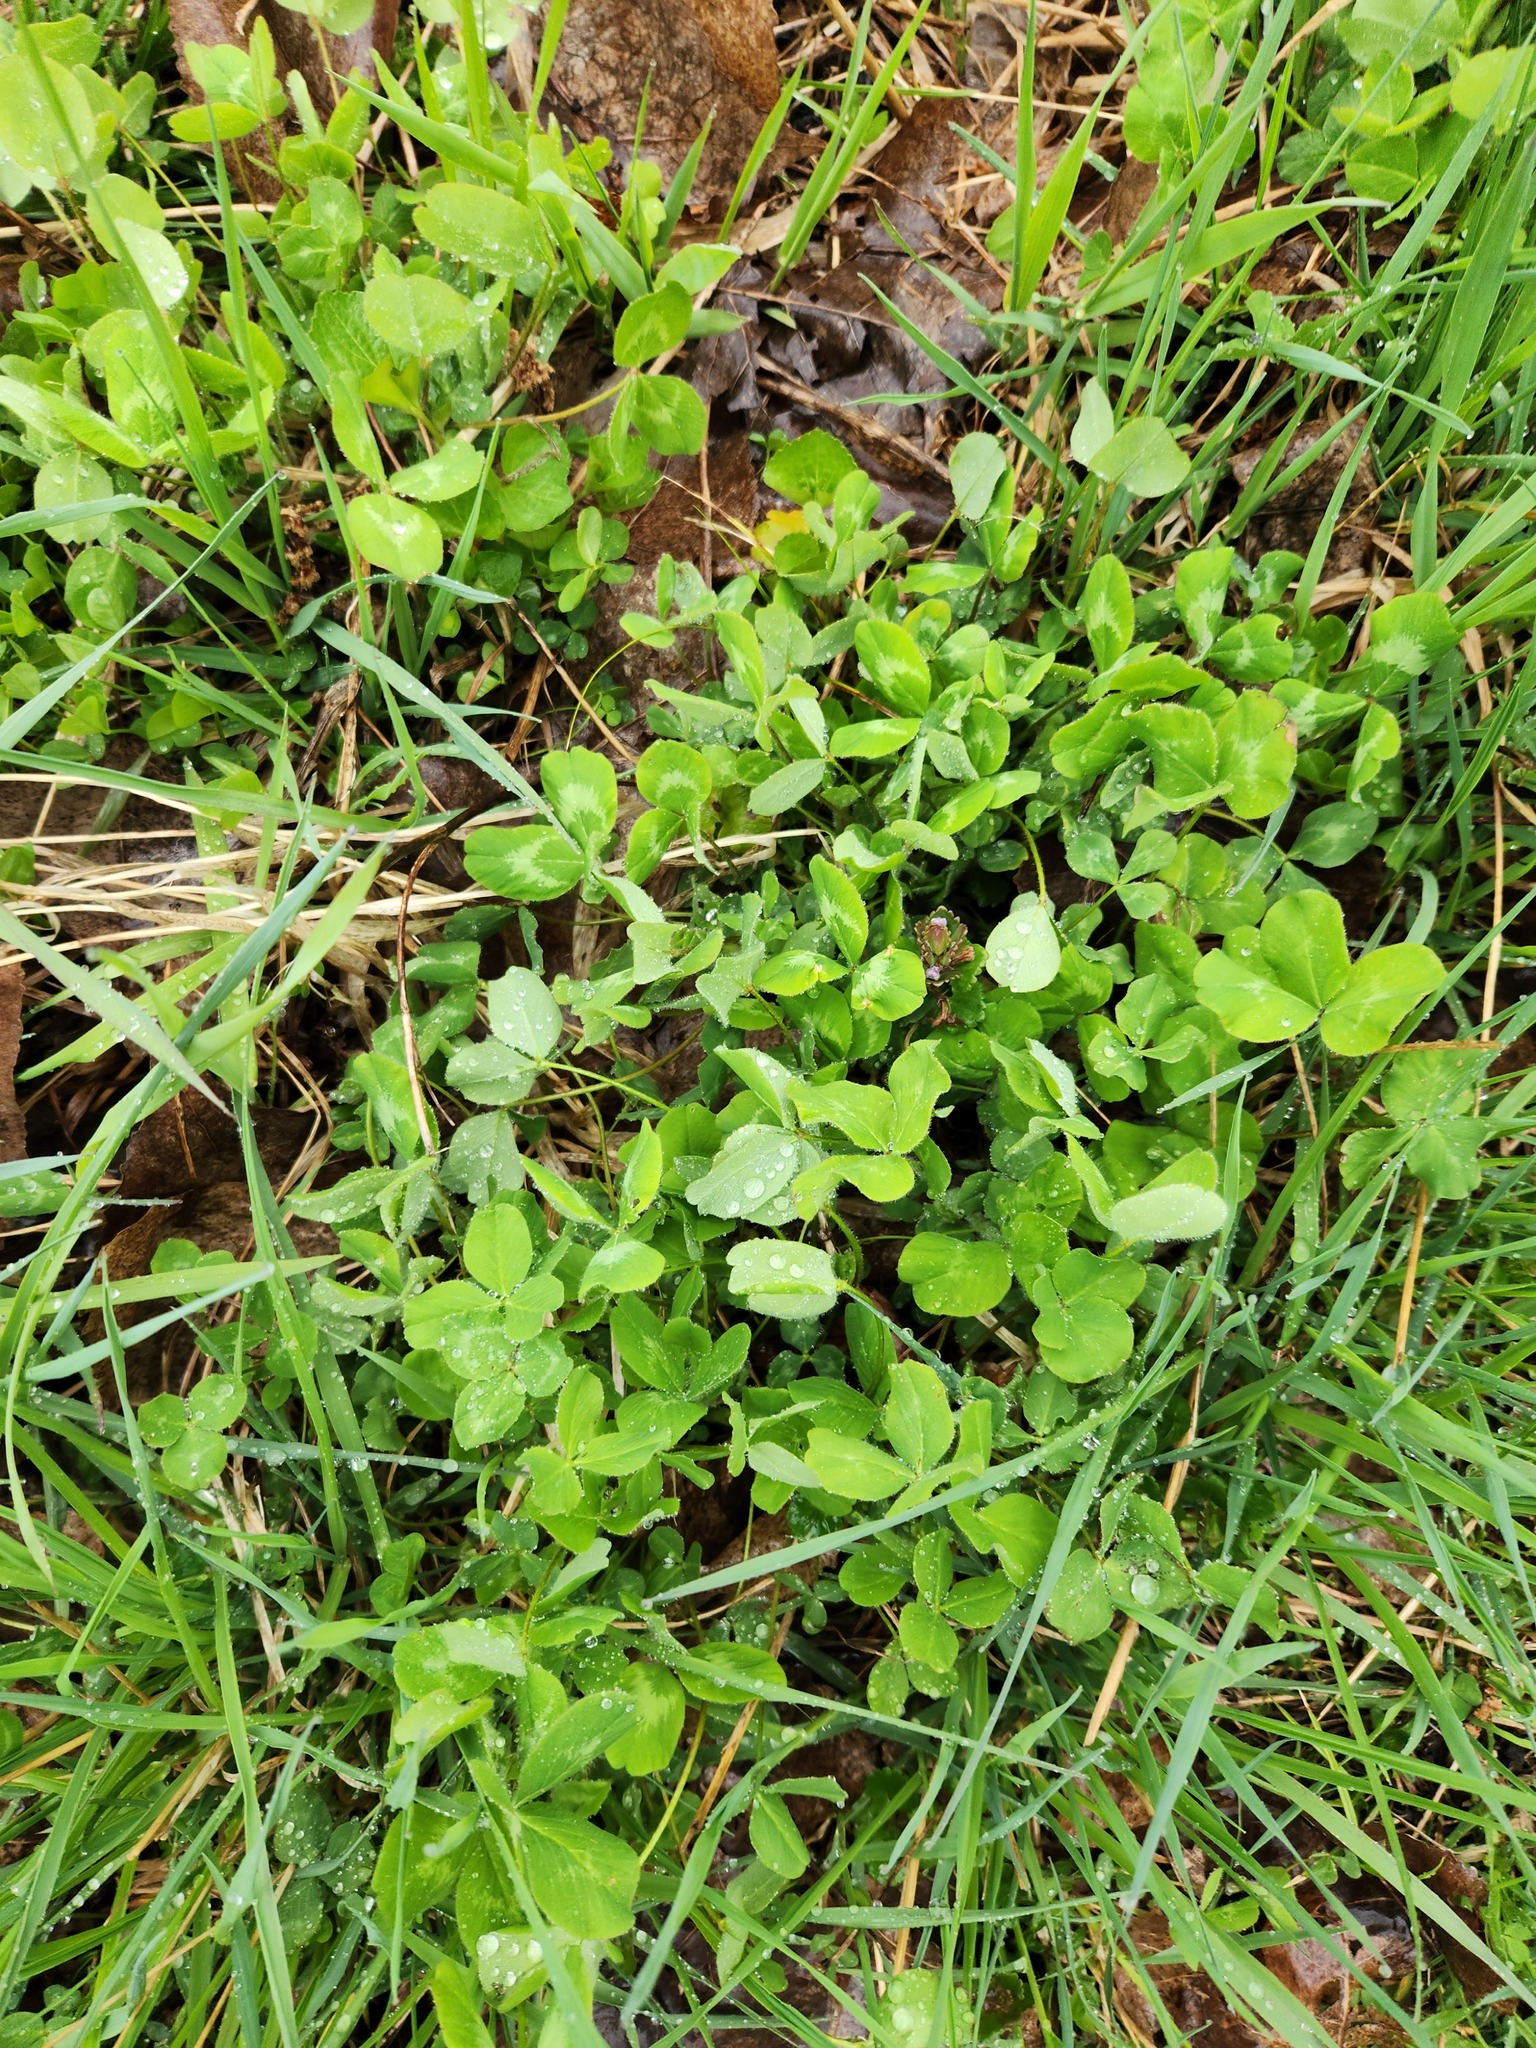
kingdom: Plantae
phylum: Tracheophyta
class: Magnoliopsida
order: Fabales
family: Fabaceae
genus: Trifolium
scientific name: Trifolium pratense
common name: Red clover
